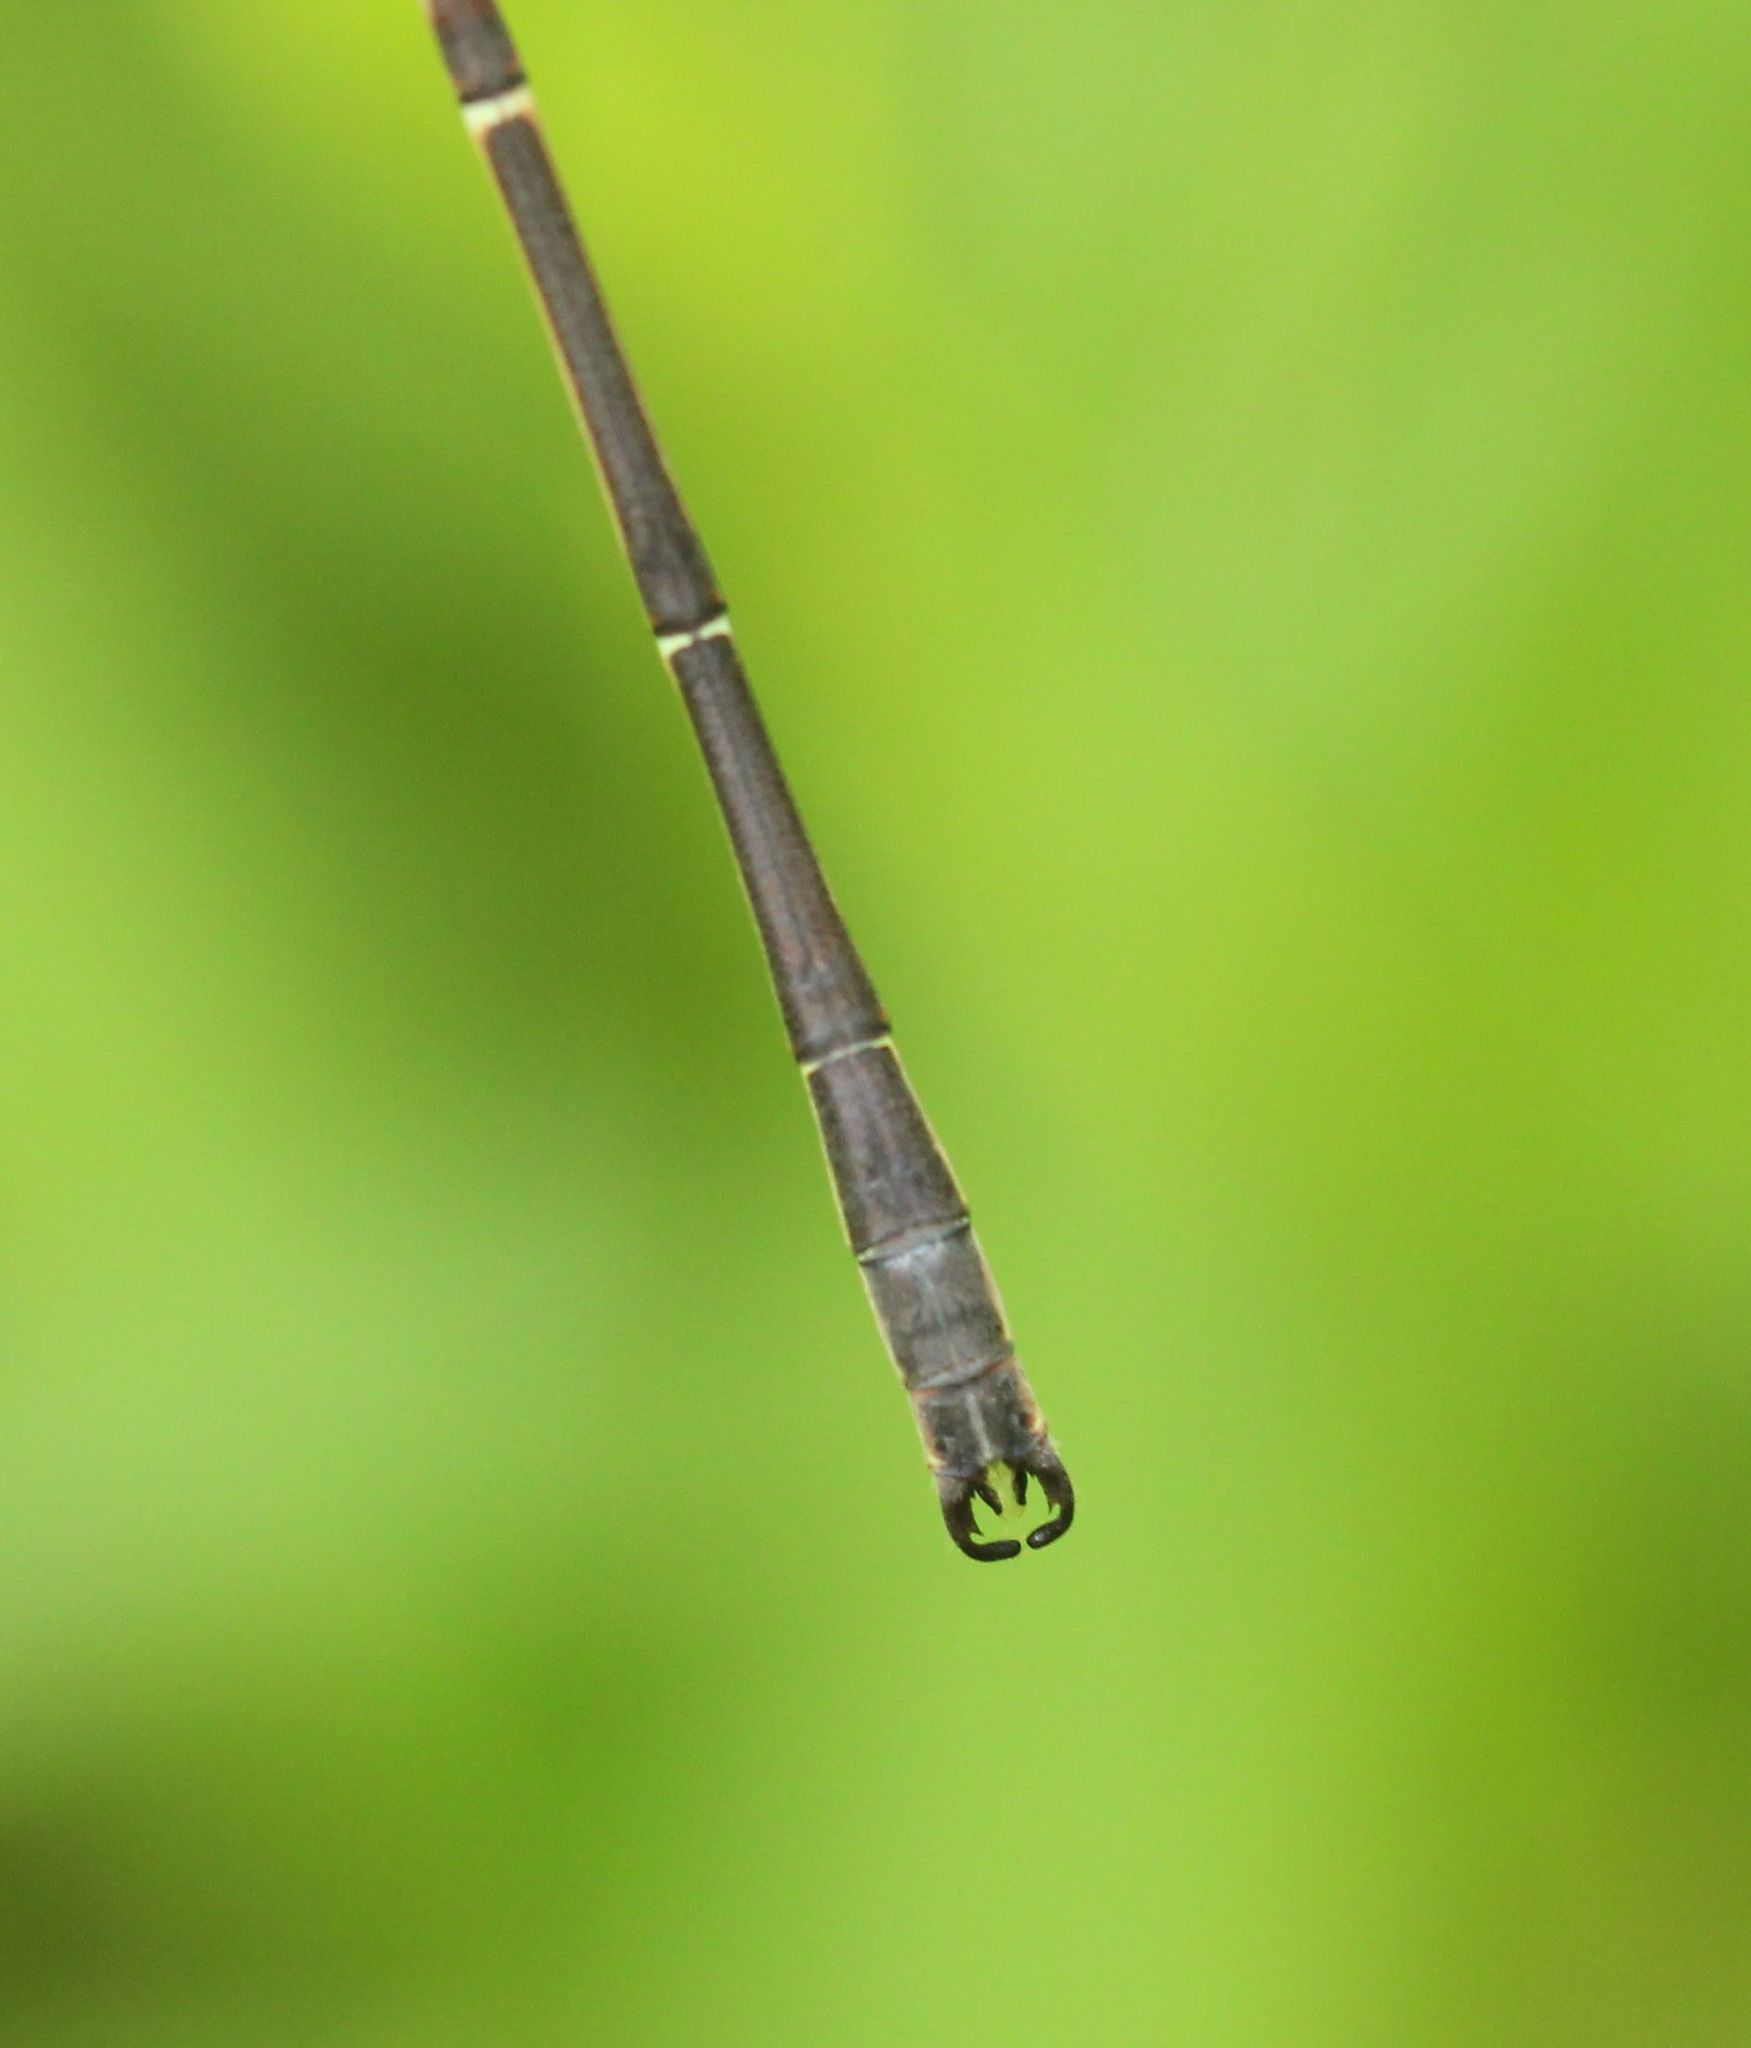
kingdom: Animalia
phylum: Arthropoda
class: Insecta
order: Odonata
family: Lestidae
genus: Lestes
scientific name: Lestes rectangularis
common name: Slender spreadwing
